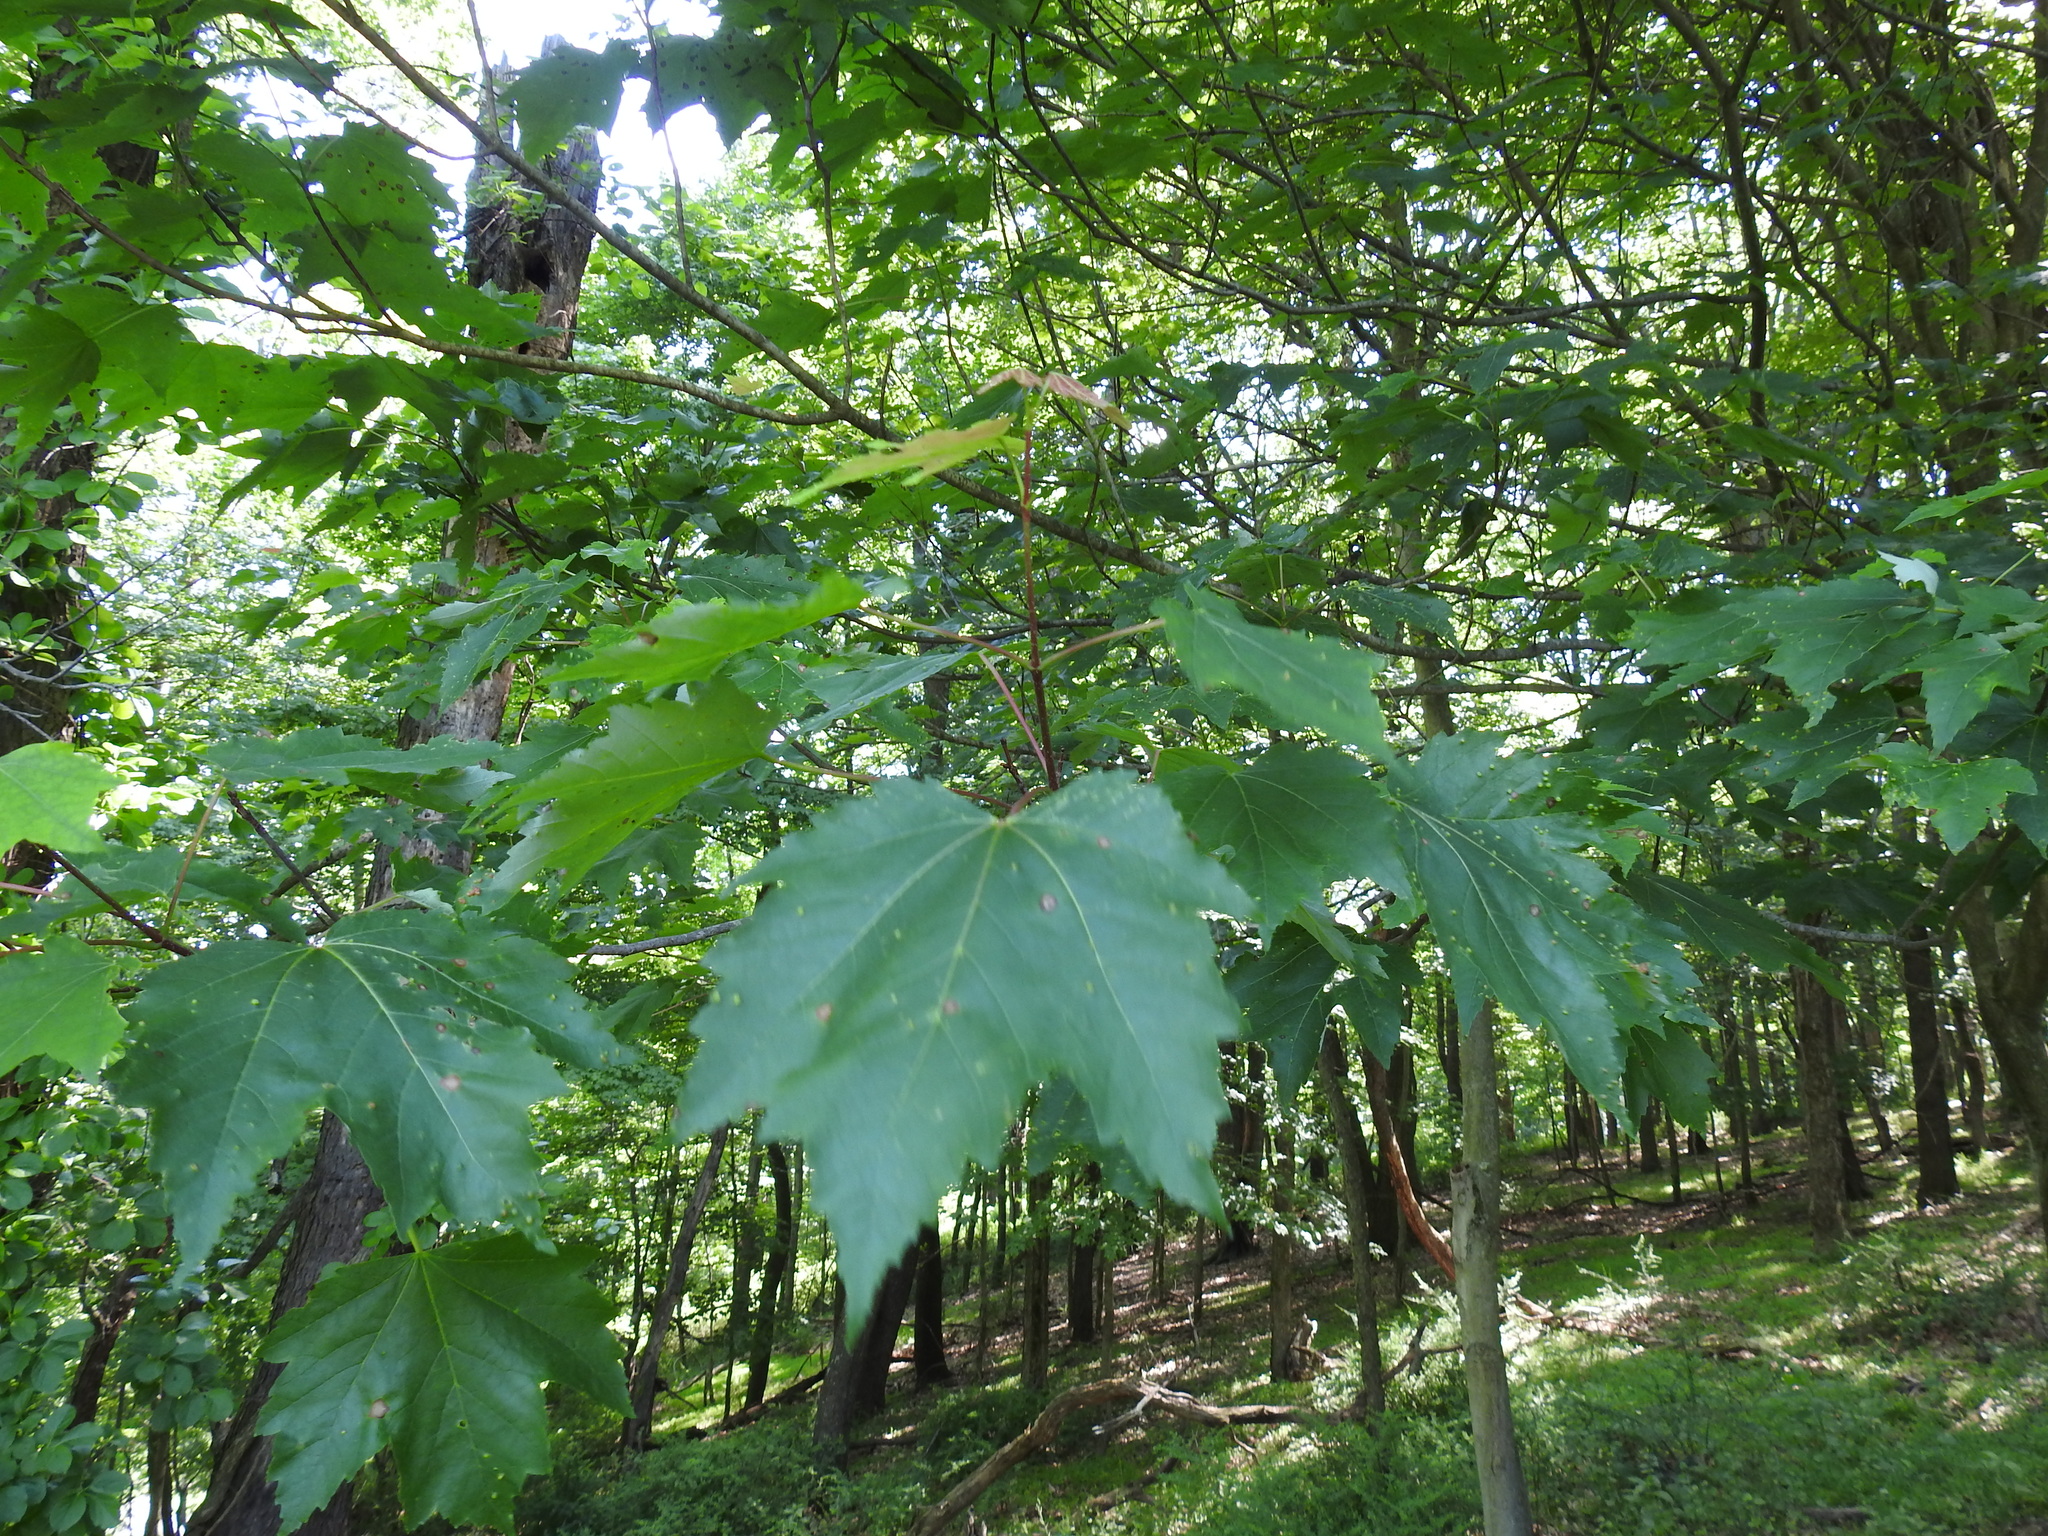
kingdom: Plantae
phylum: Tracheophyta
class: Magnoliopsida
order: Sapindales
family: Sapindaceae
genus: Acer
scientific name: Acer rubrum
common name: Red maple
